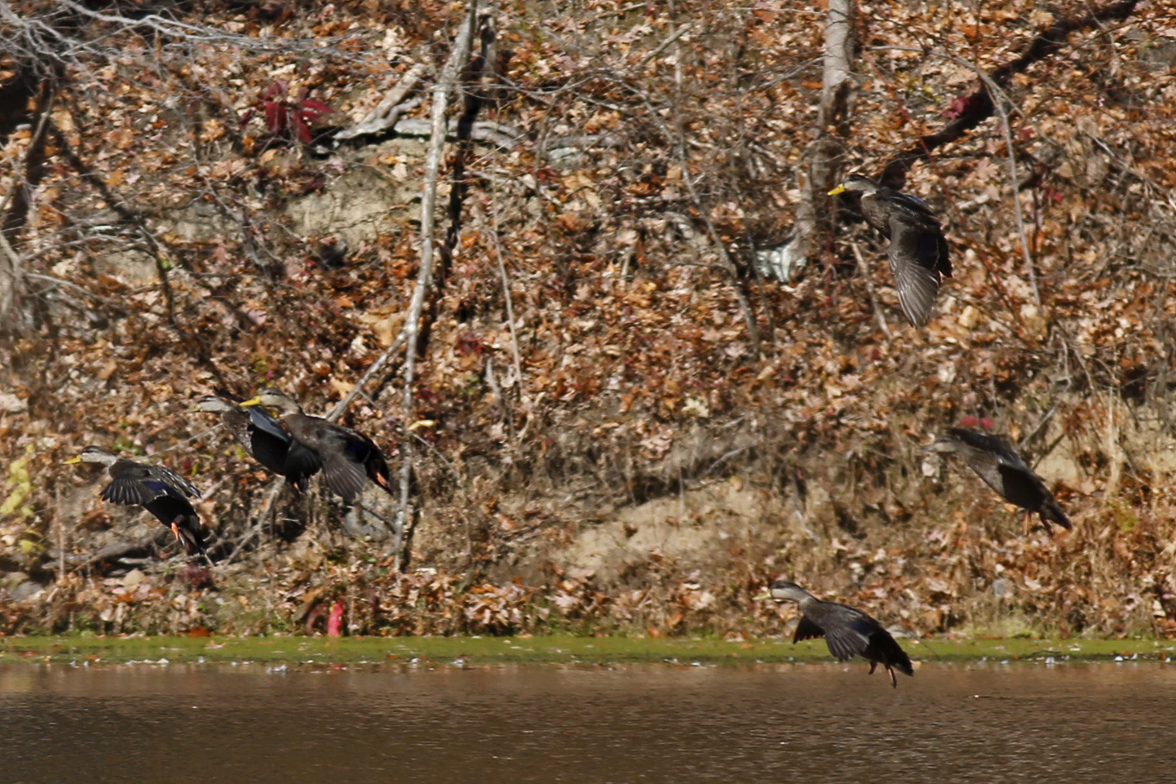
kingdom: Animalia
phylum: Chordata
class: Aves
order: Anseriformes
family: Anatidae
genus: Anas
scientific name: Anas rubripes
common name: American black duck
